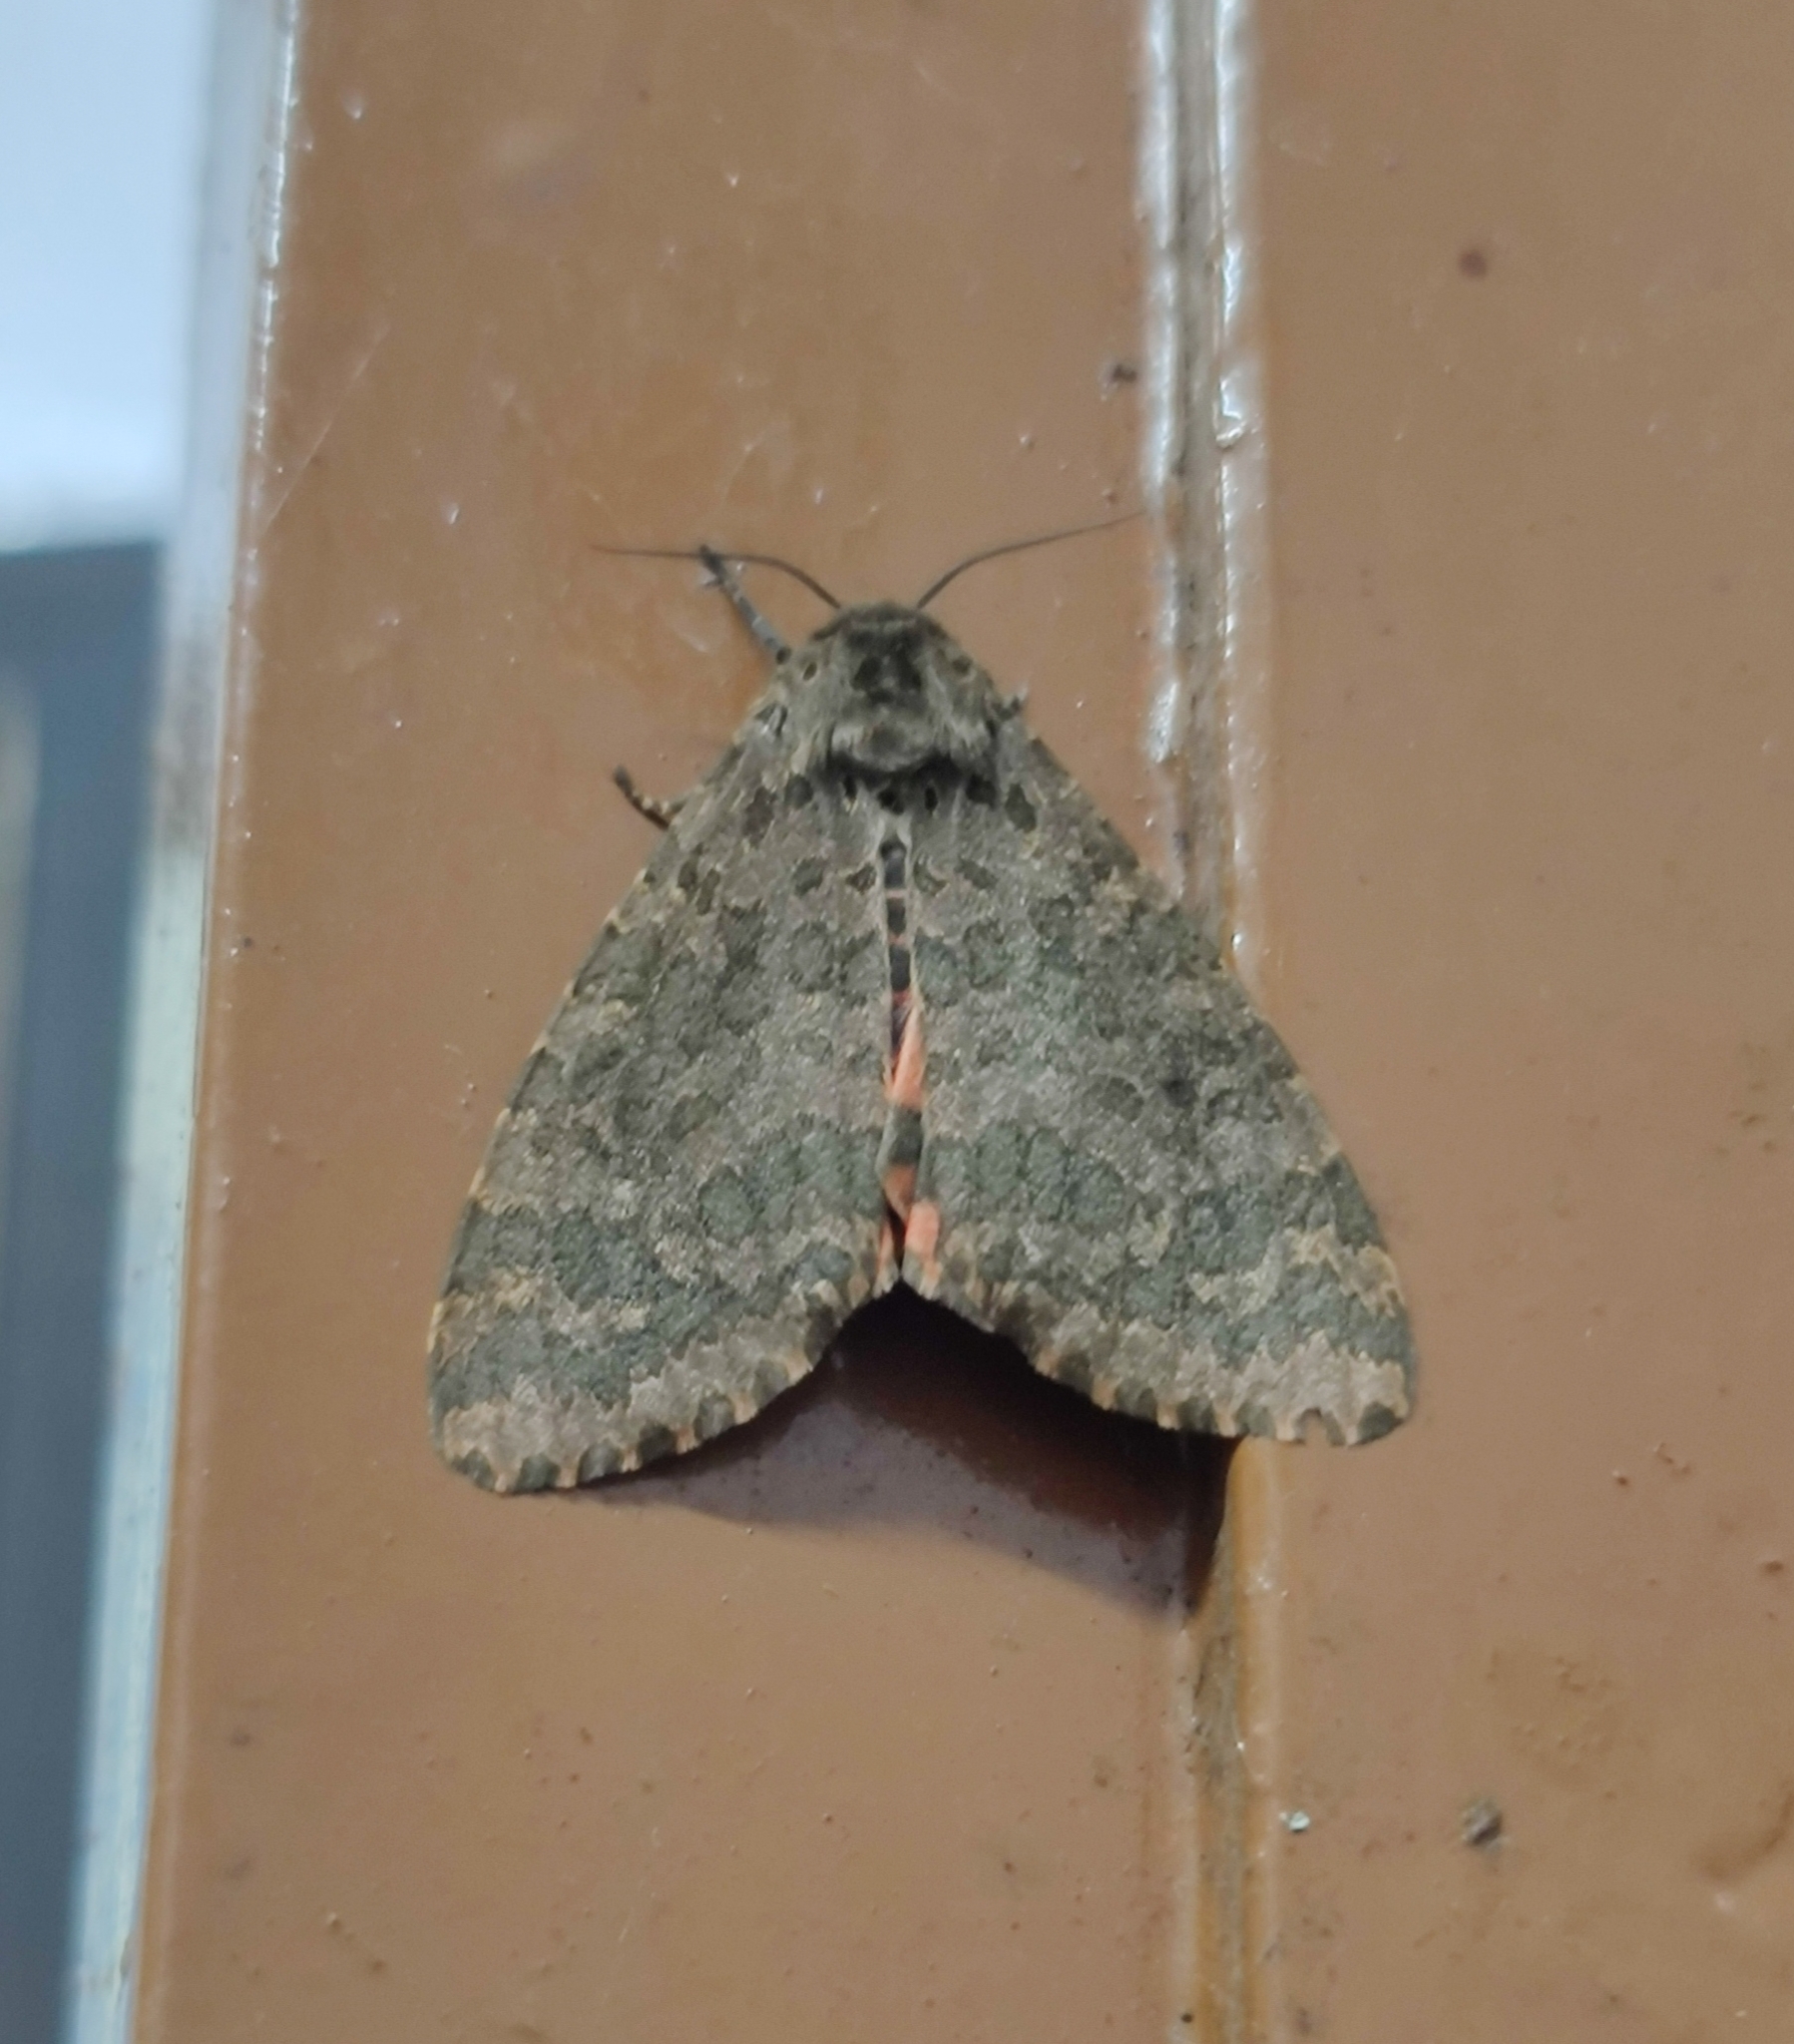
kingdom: Animalia
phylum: Arthropoda
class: Insecta
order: Lepidoptera
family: Erebidae
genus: Olepa
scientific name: Olepa ricini
